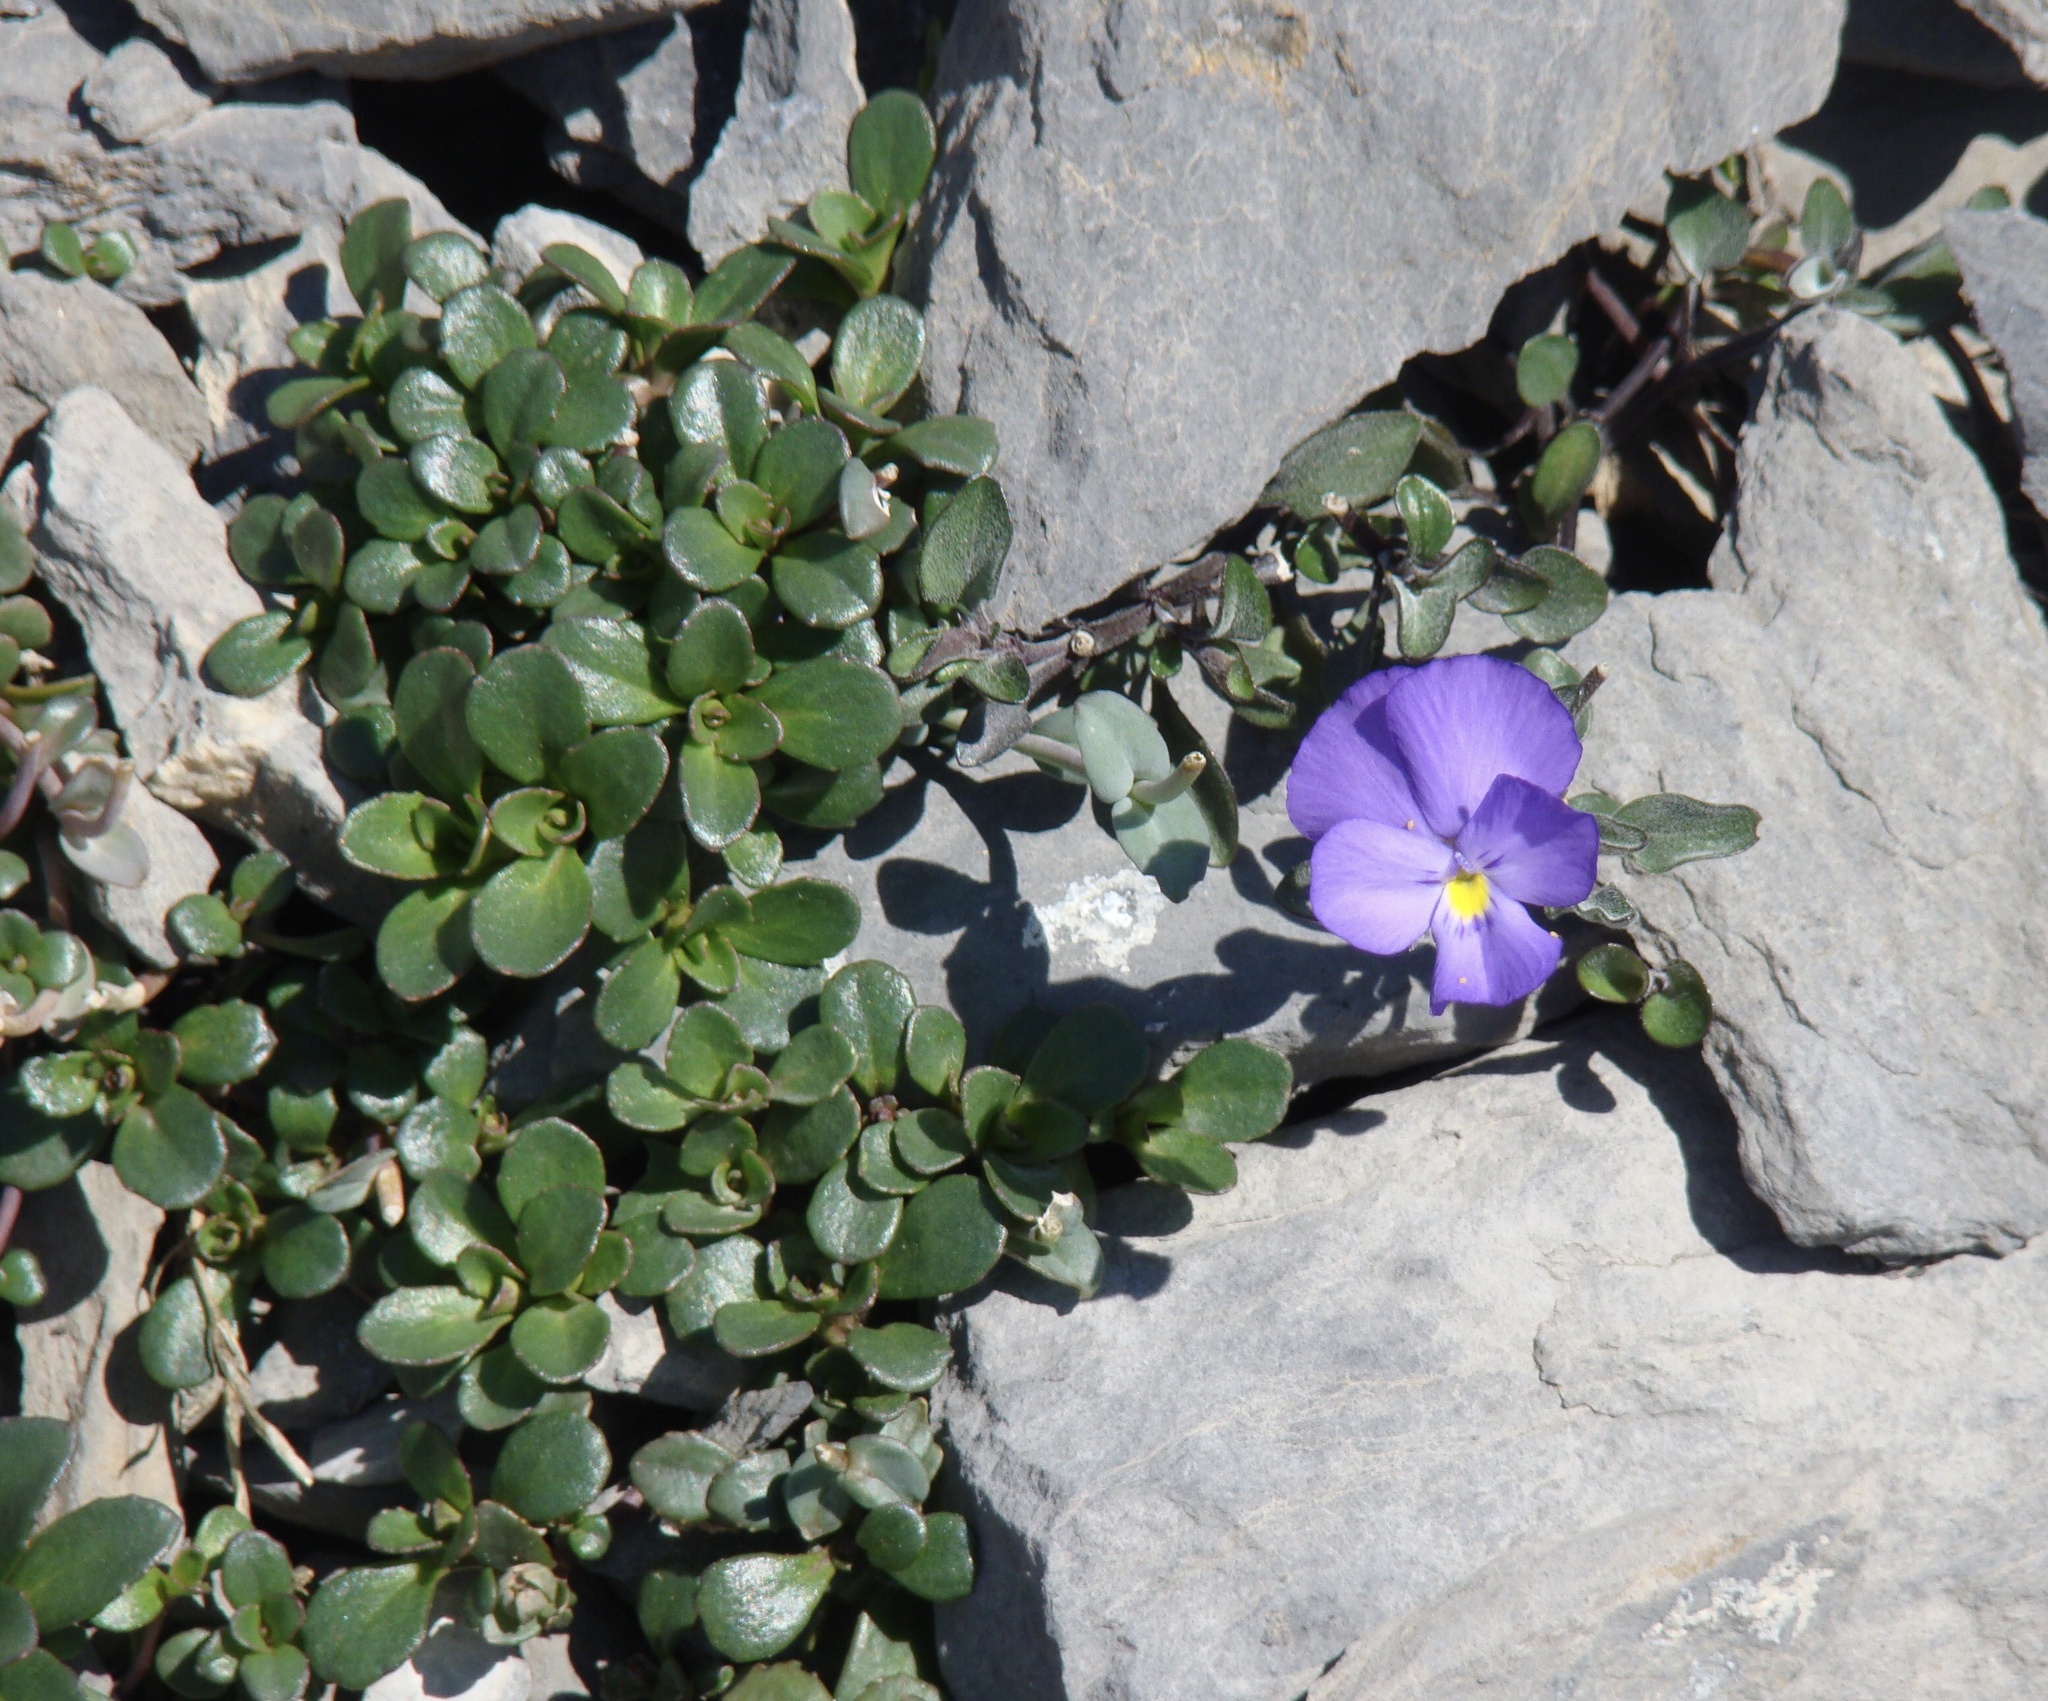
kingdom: Plantae
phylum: Tracheophyta
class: Magnoliopsida
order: Malpighiales
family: Violaceae
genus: Viola
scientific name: Viola cenisia
